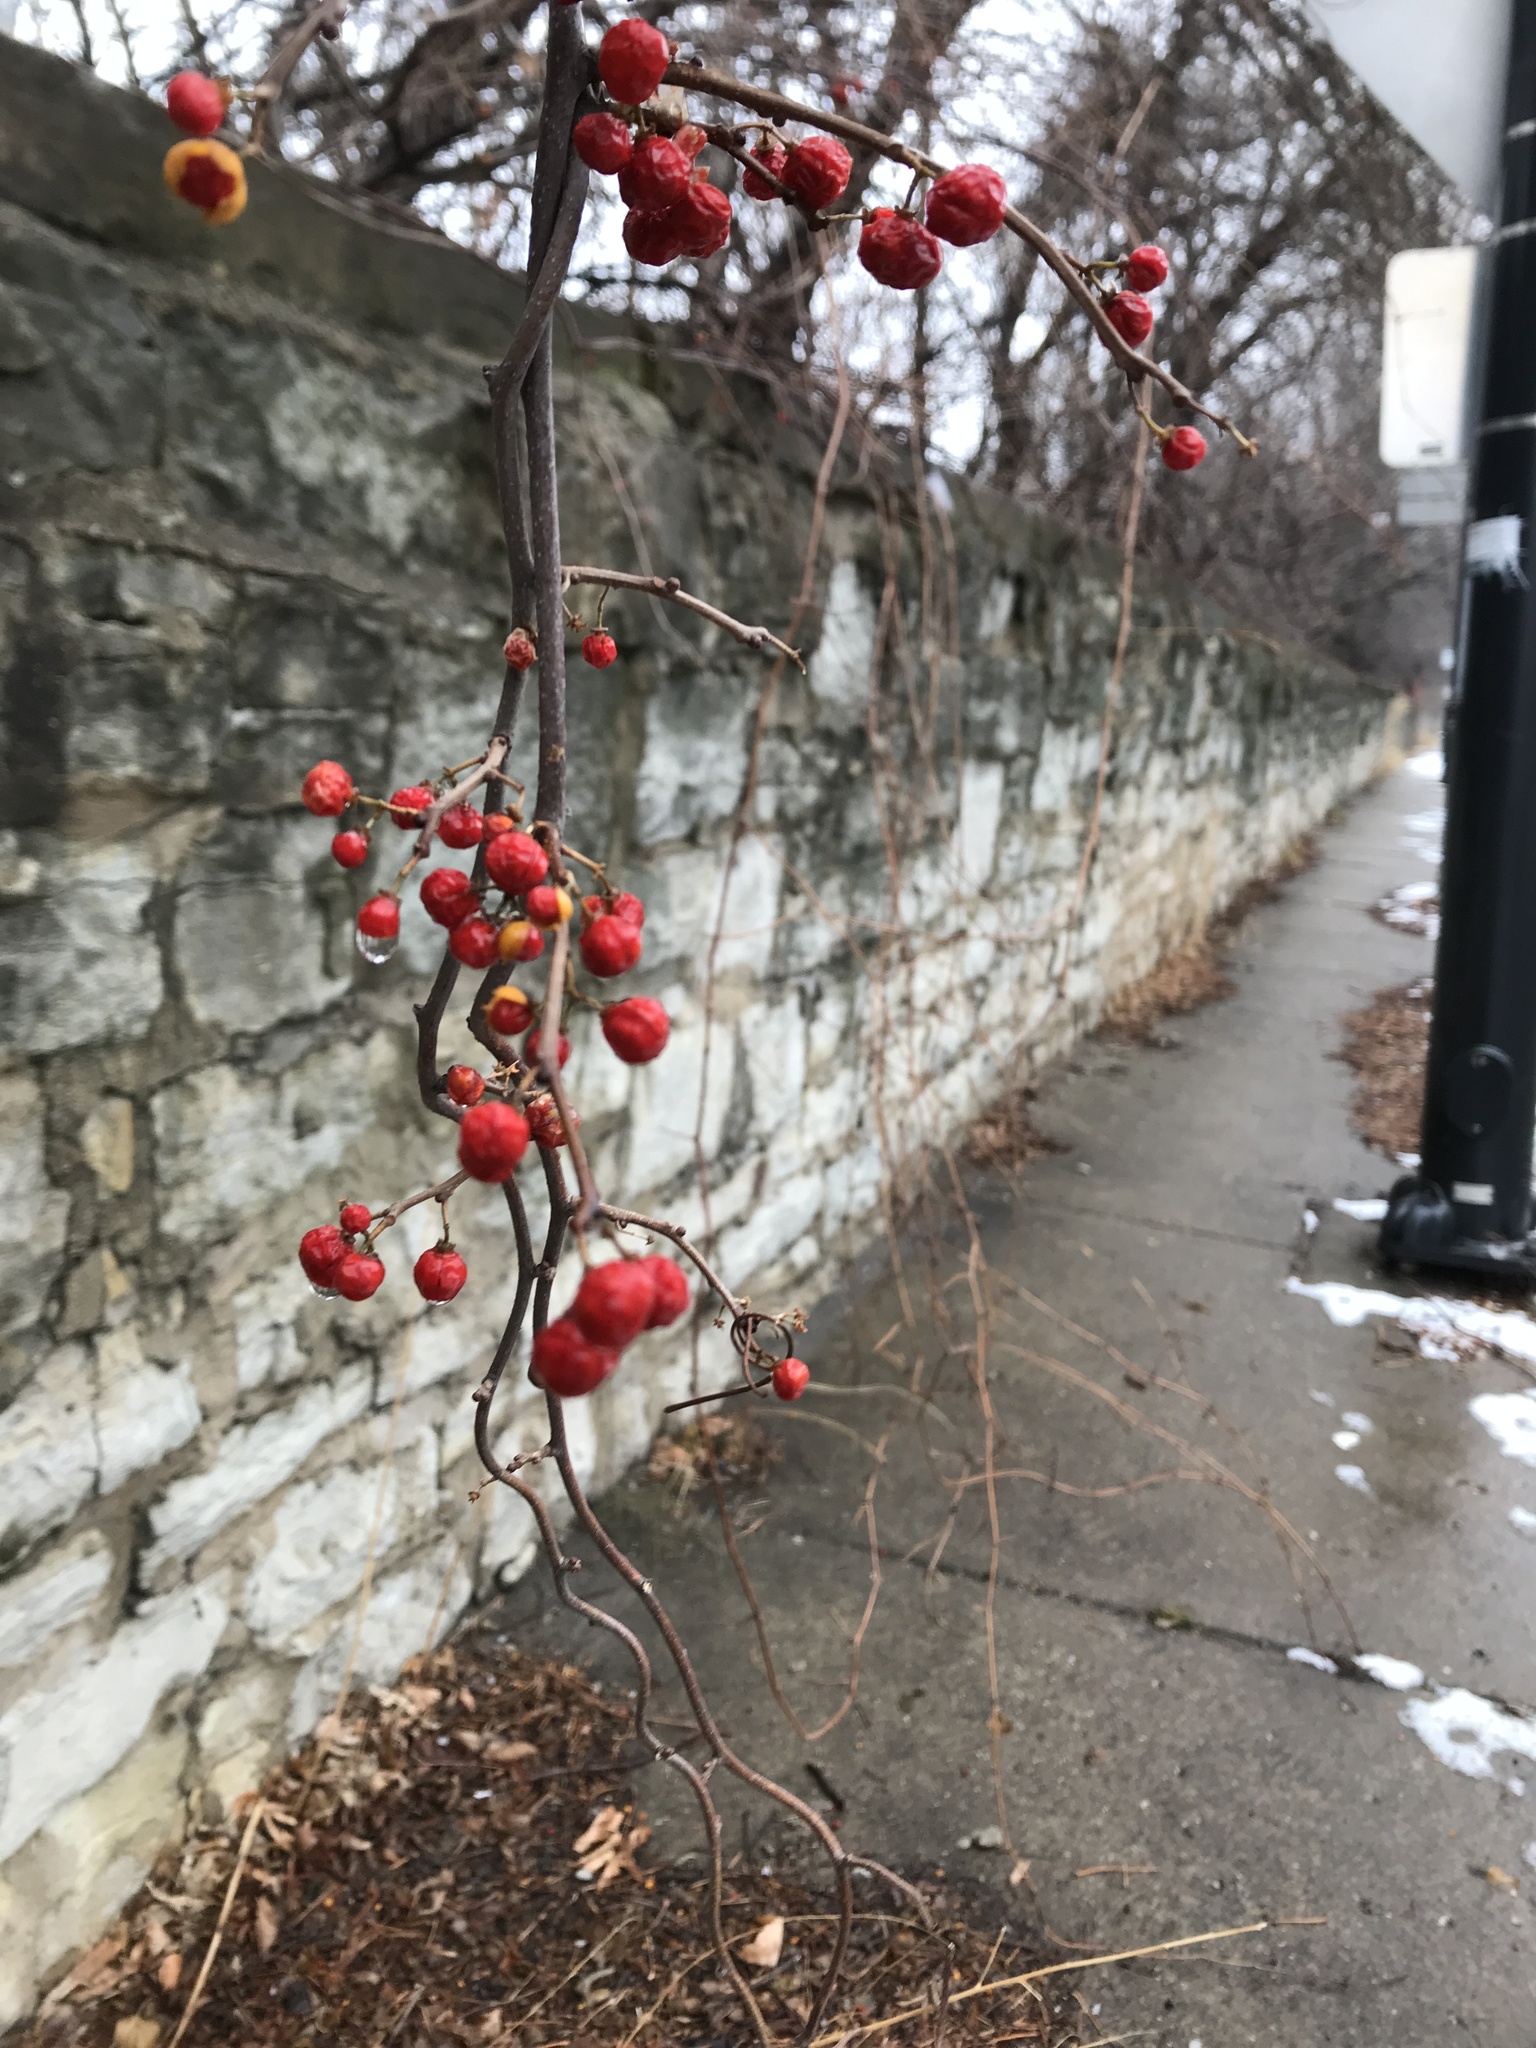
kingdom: Plantae
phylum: Tracheophyta
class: Magnoliopsida
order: Celastrales
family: Celastraceae
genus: Celastrus
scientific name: Celastrus orbiculatus
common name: Oriental bittersweet
